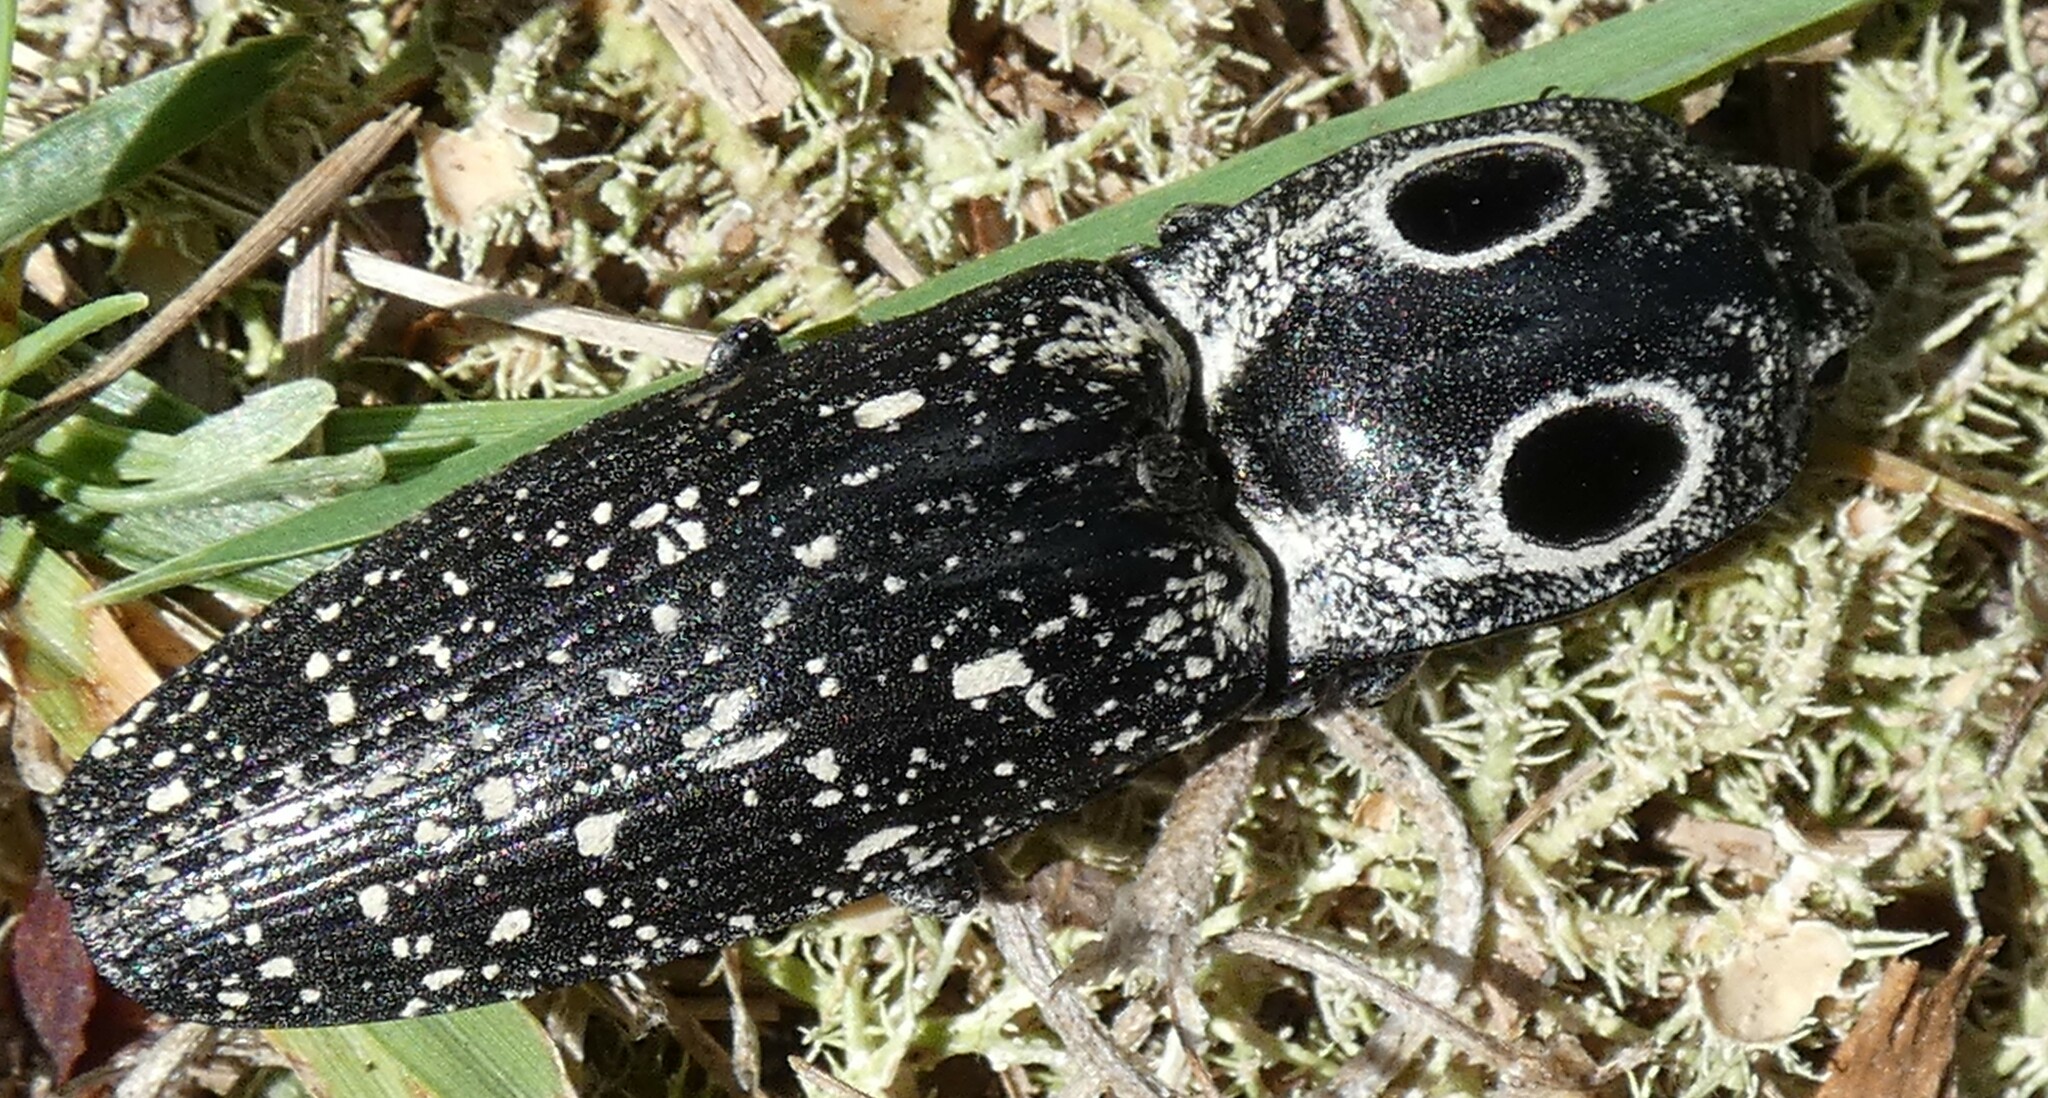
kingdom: Animalia
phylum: Arthropoda
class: Insecta
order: Coleoptera
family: Elateridae
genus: Alaus
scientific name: Alaus oculatus
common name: Eastern eyed click beetle
